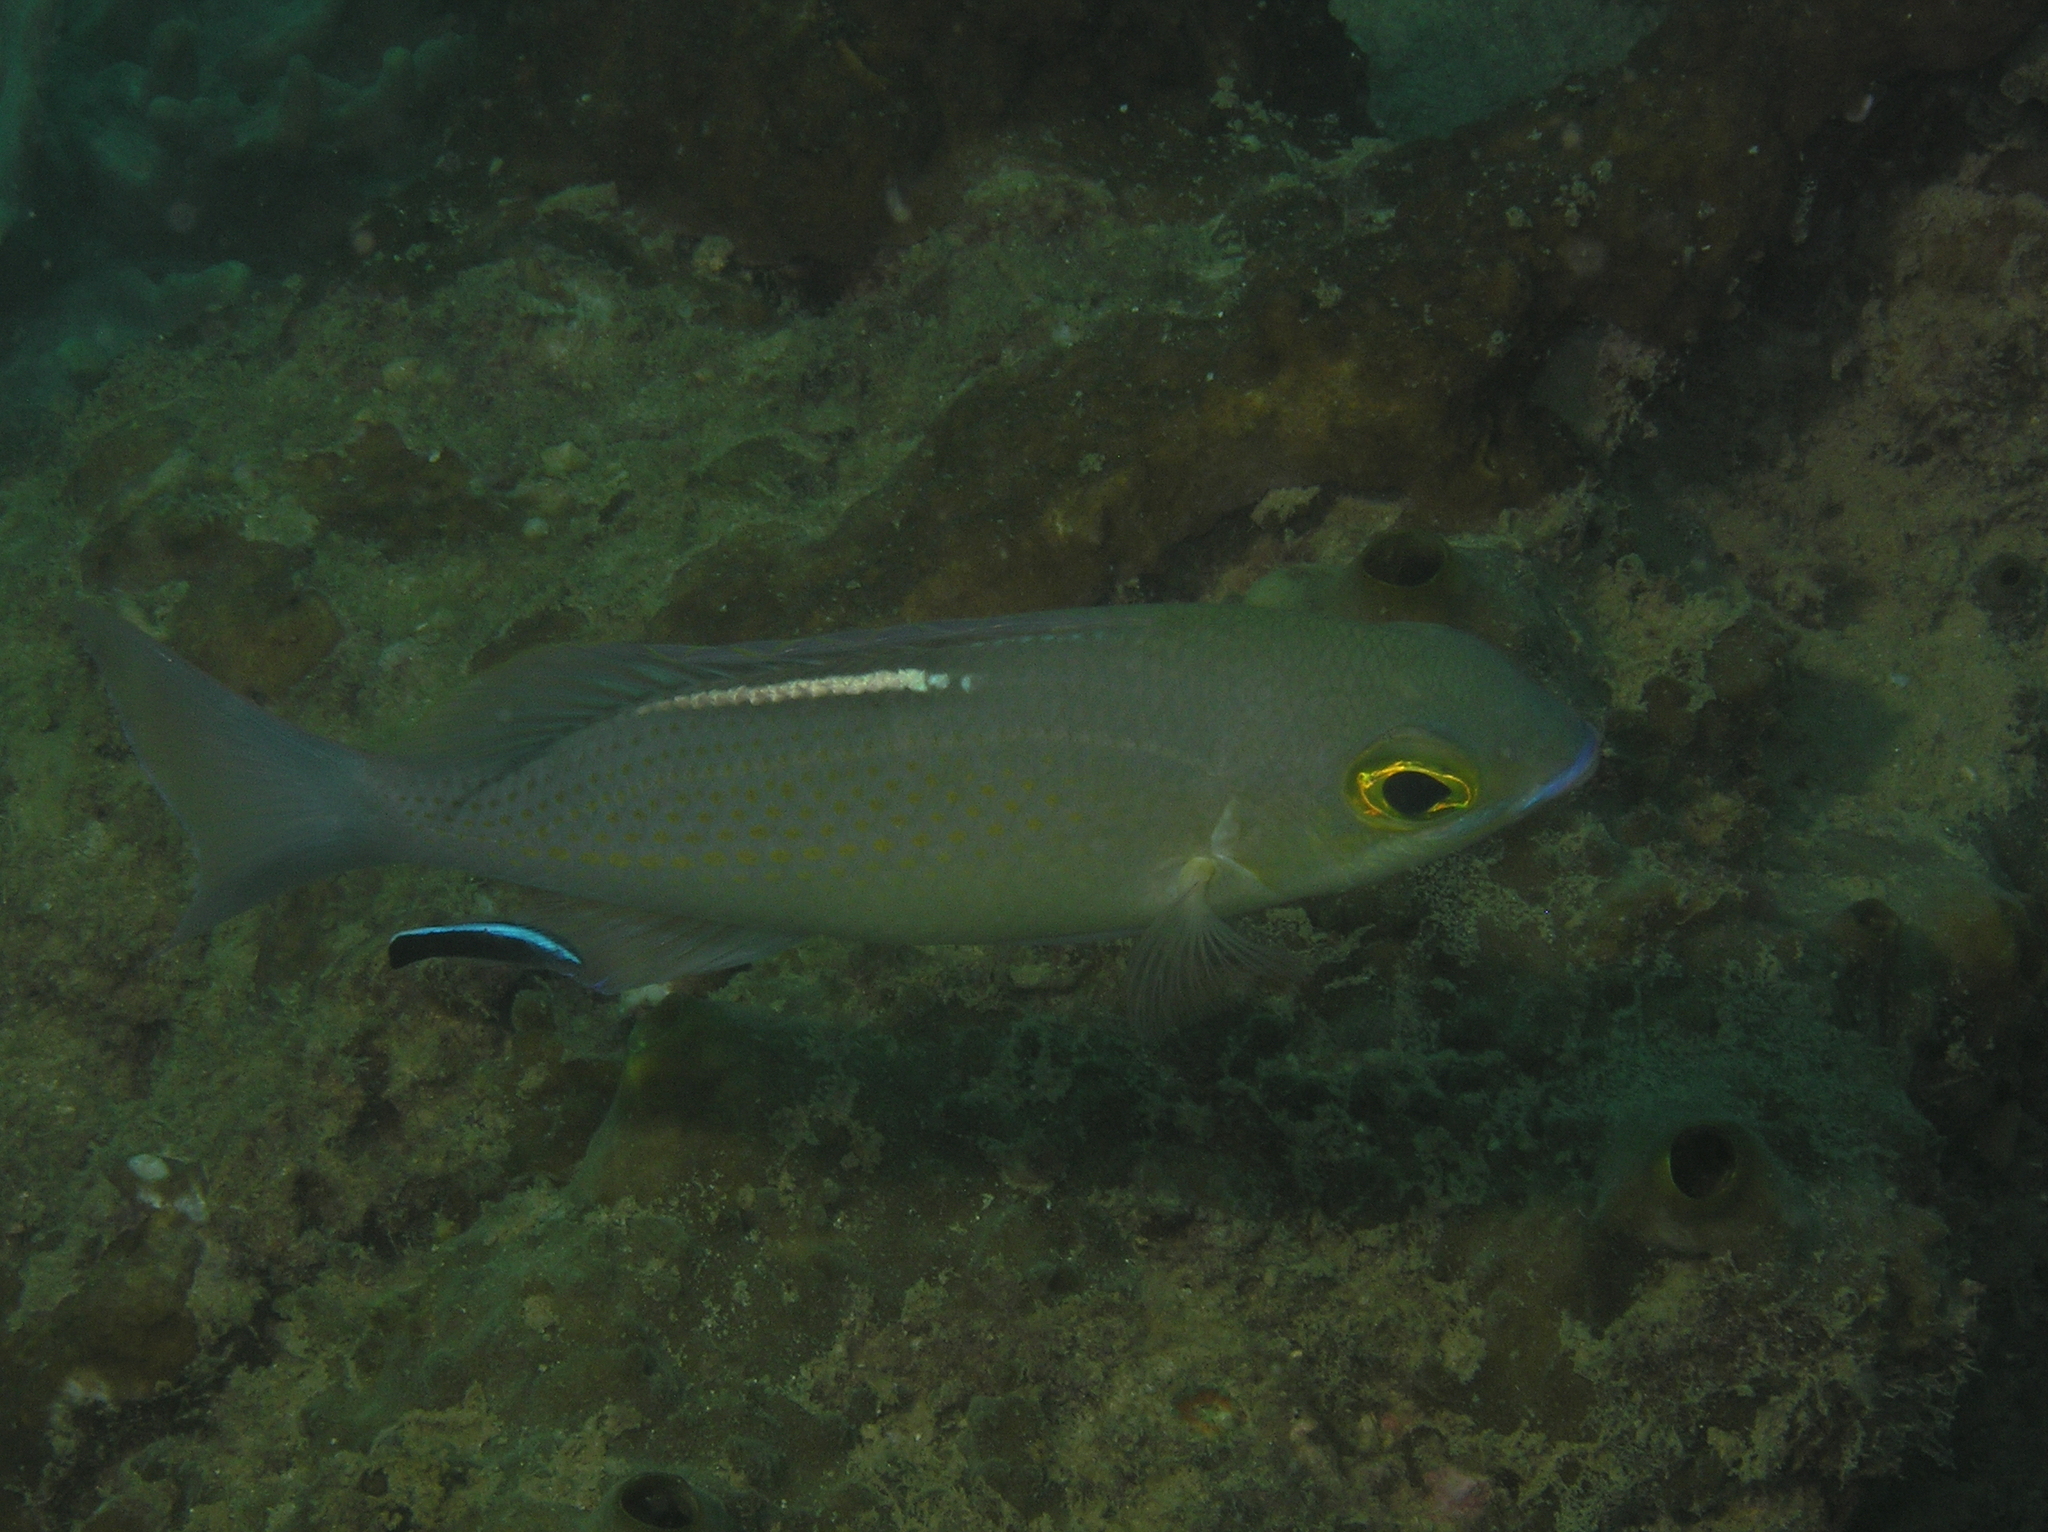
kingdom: Animalia
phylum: Chordata
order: Perciformes
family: Nemipteridae
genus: Scolopsis
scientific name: Scolopsis ciliata
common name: Ciliate spinecheek
